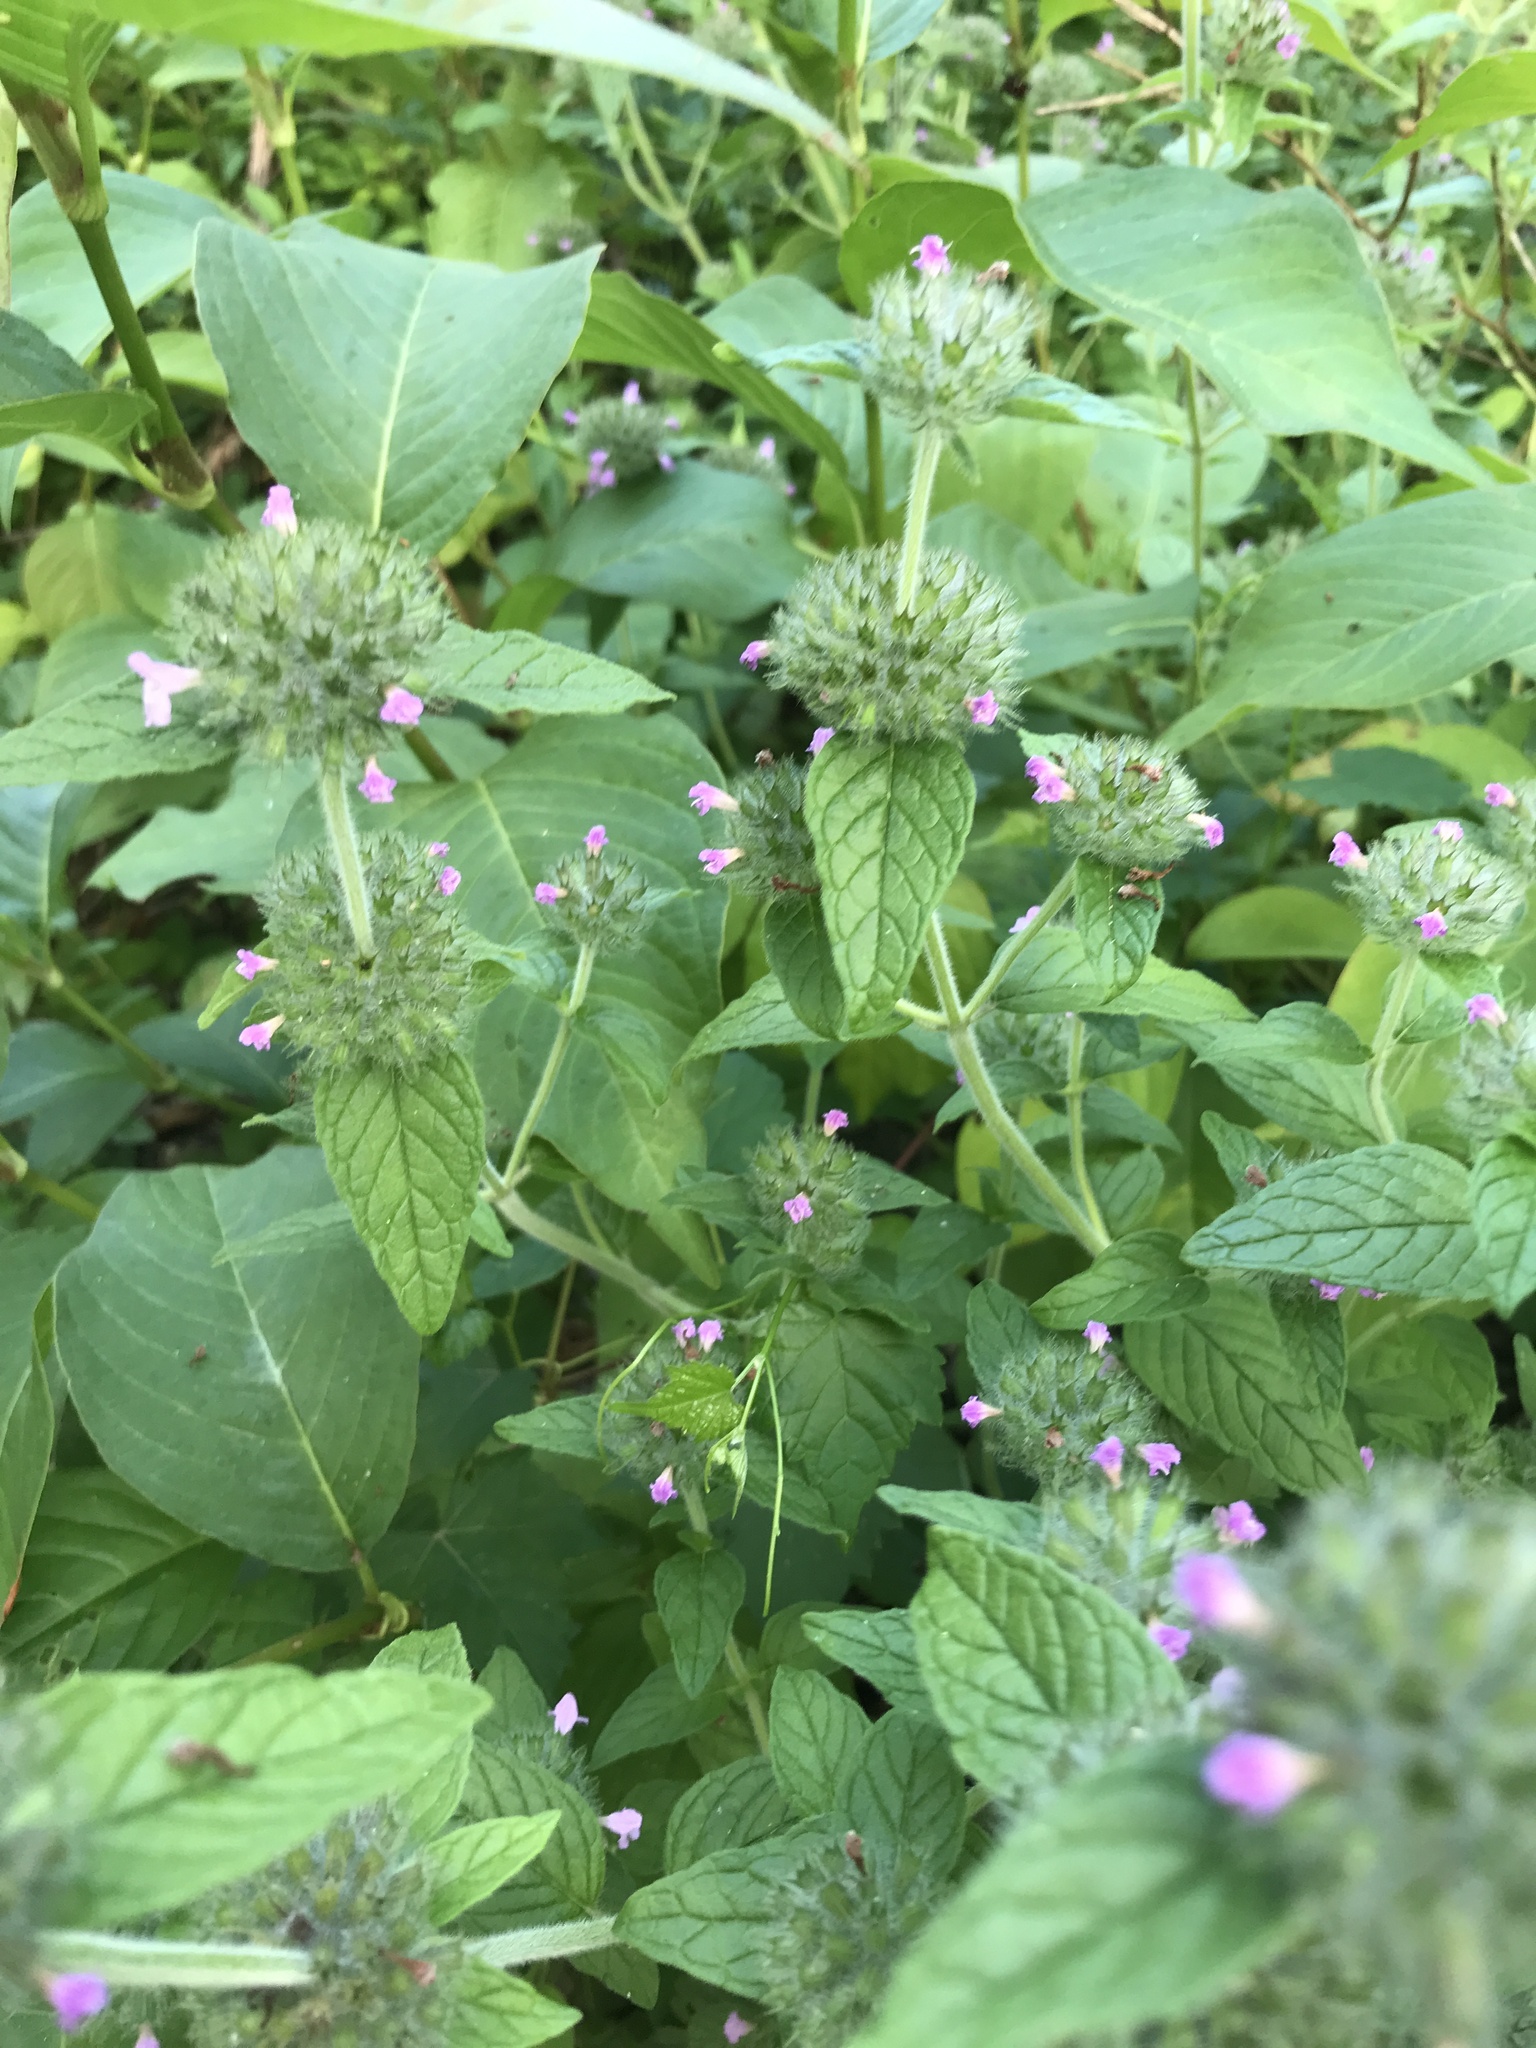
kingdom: Plantae
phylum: Tracheophyta
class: Magnoliopsida
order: Lamiales
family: Lamiaceae
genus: Clinopodium
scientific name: Clinopodium vulgare
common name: Wild basil
